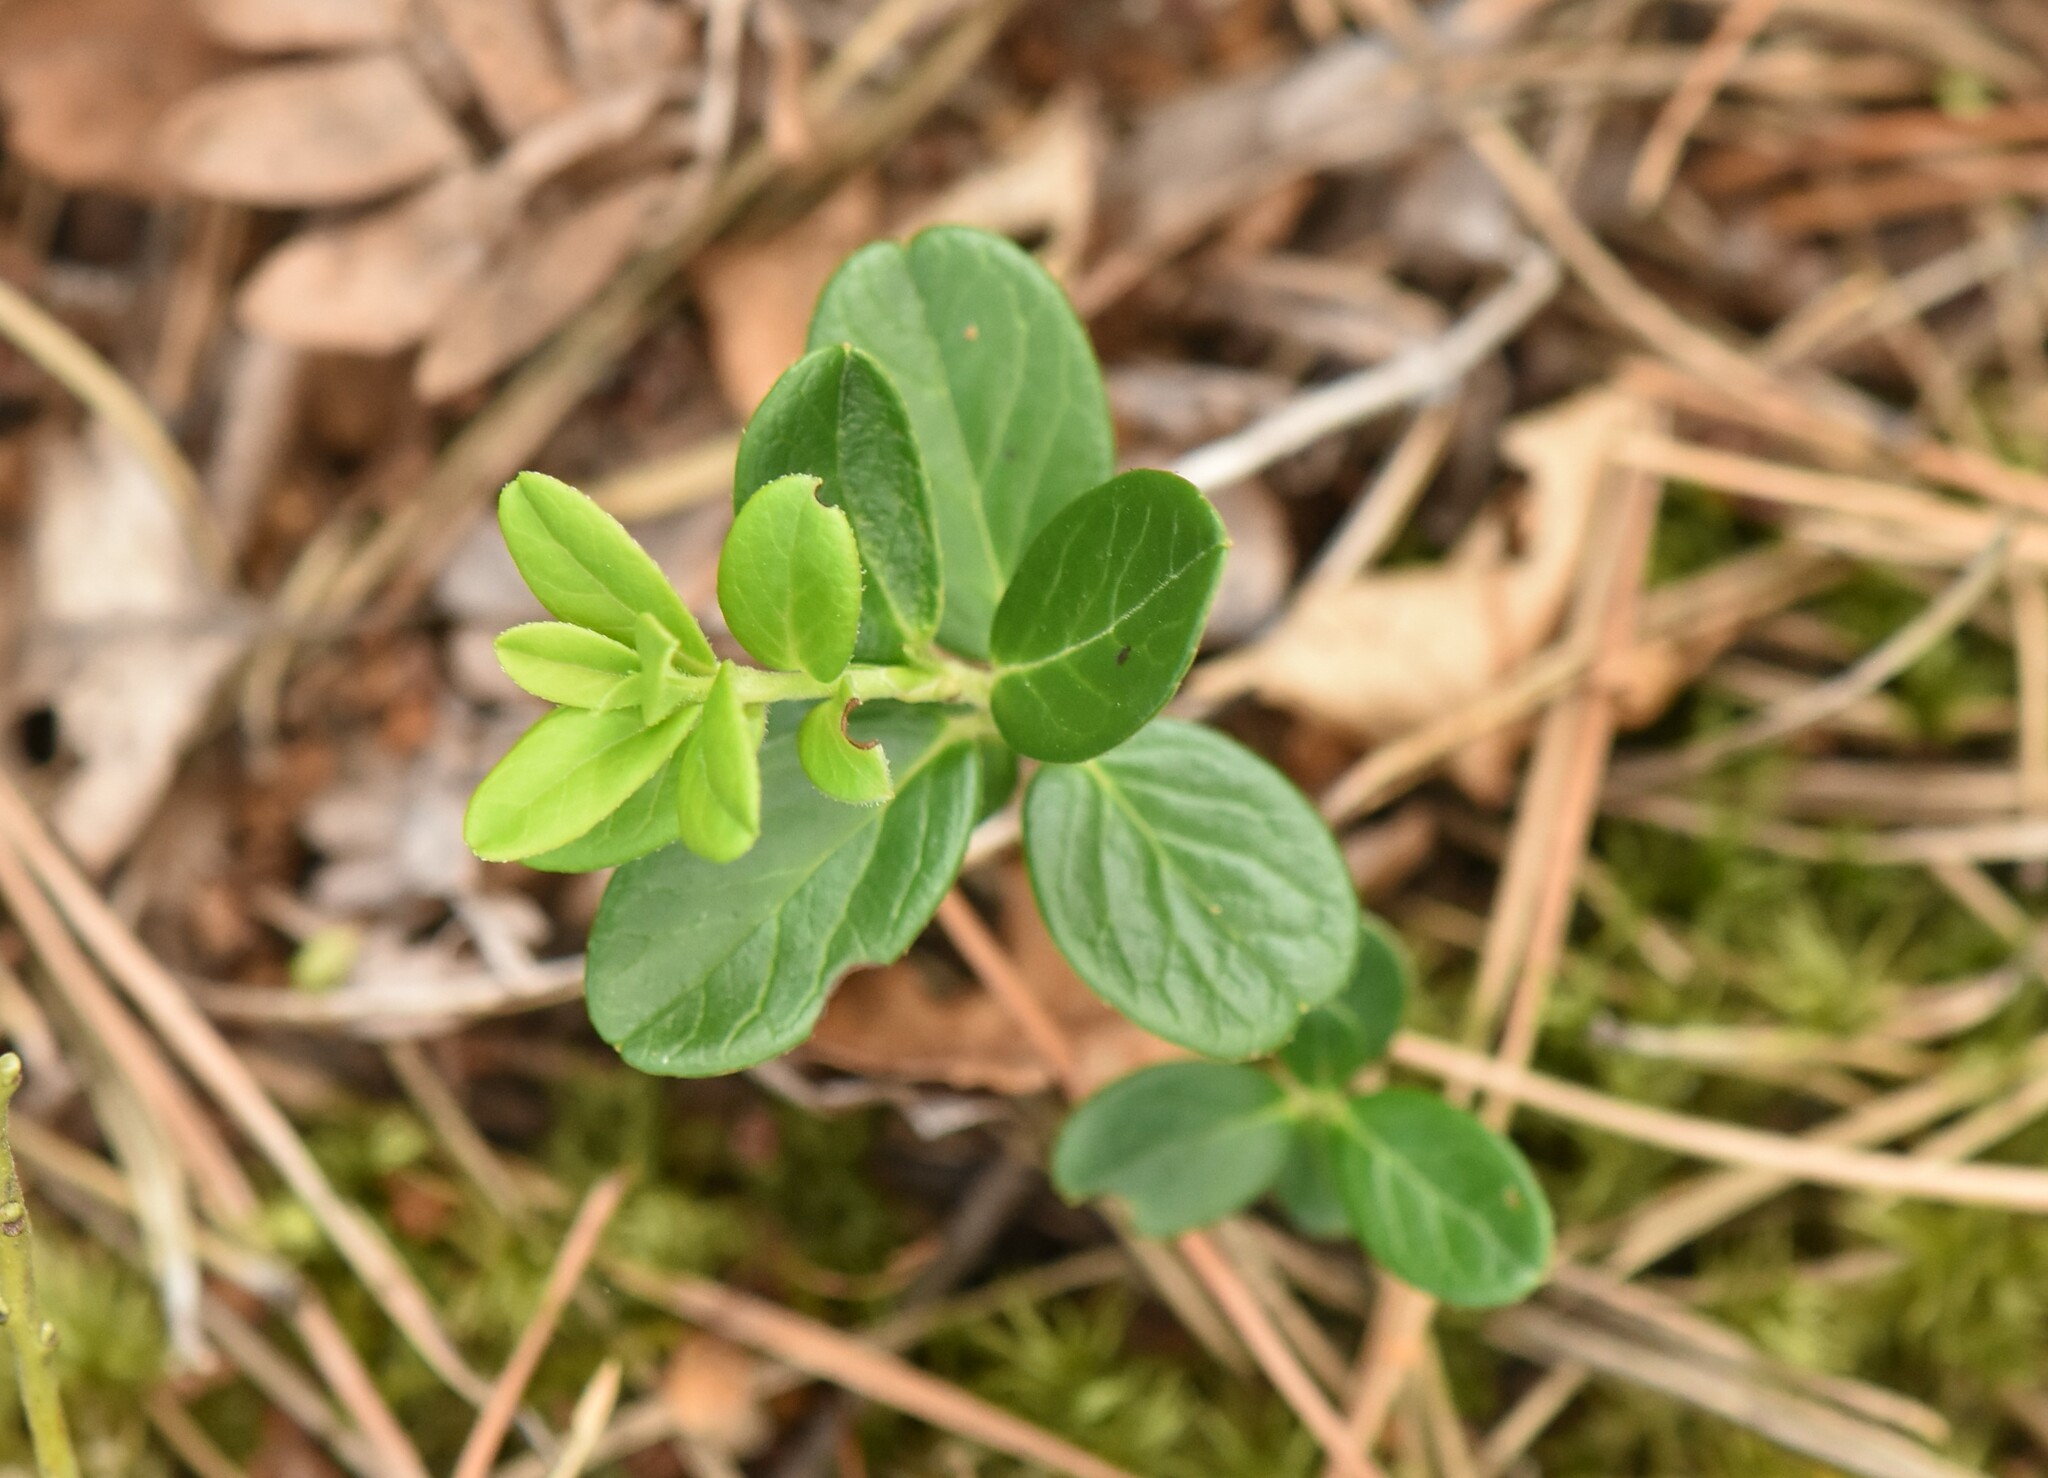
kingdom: Plantae
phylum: Tracheophyta
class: Magnoliopsida
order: Ericales
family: Ericaceae
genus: Vaccinium
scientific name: Vaccinium vitis-idaea
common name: Cowberry
